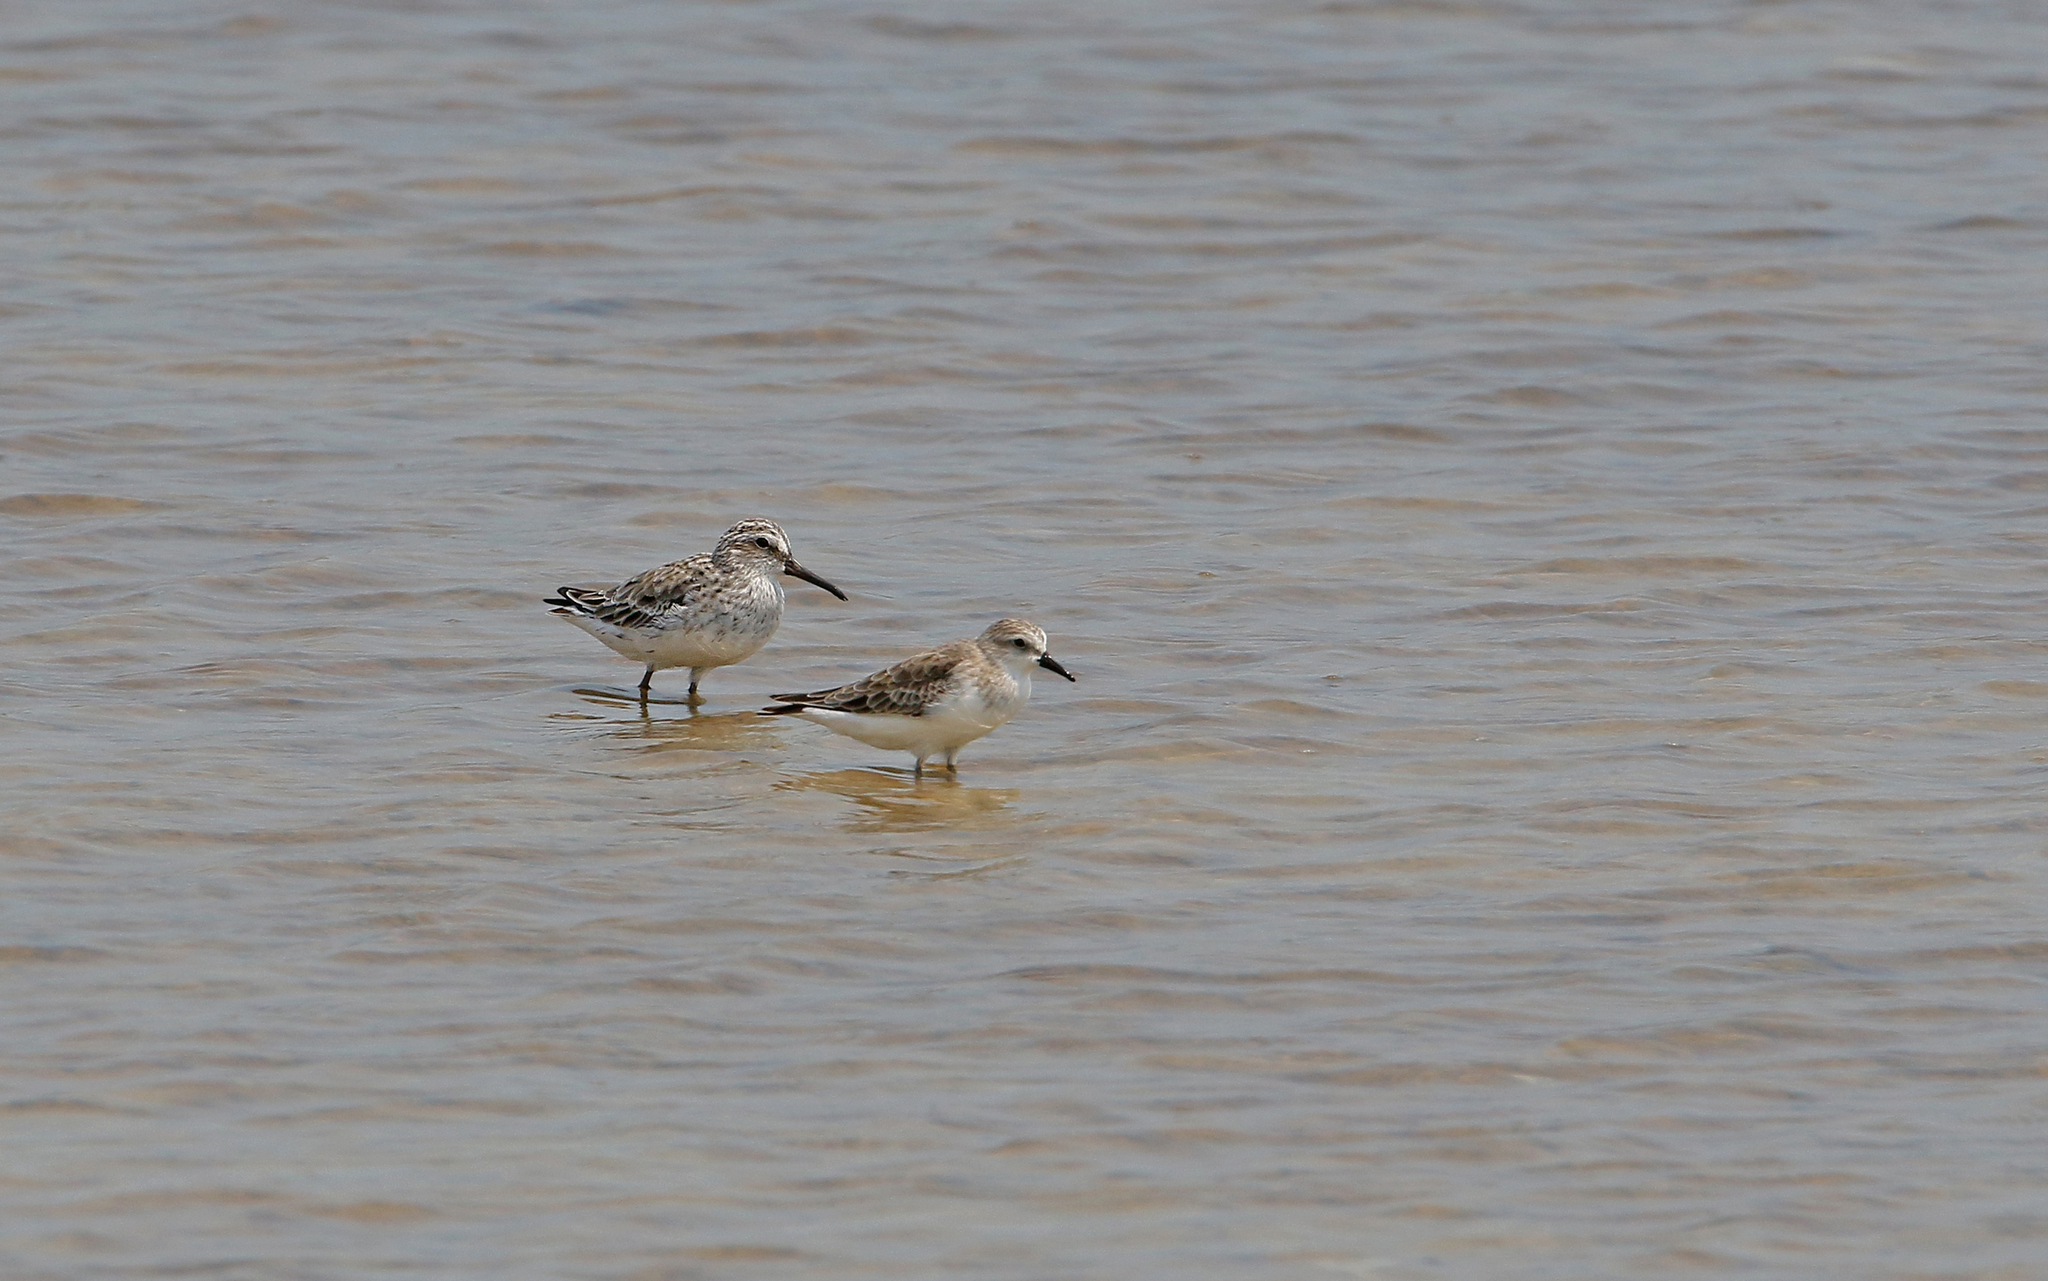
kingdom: Animalia
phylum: Chordata
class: Aves
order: Charadriiformes
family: Scolopacidae
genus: Calidris
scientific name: Calidris ruficollis
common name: Red-necked stint
